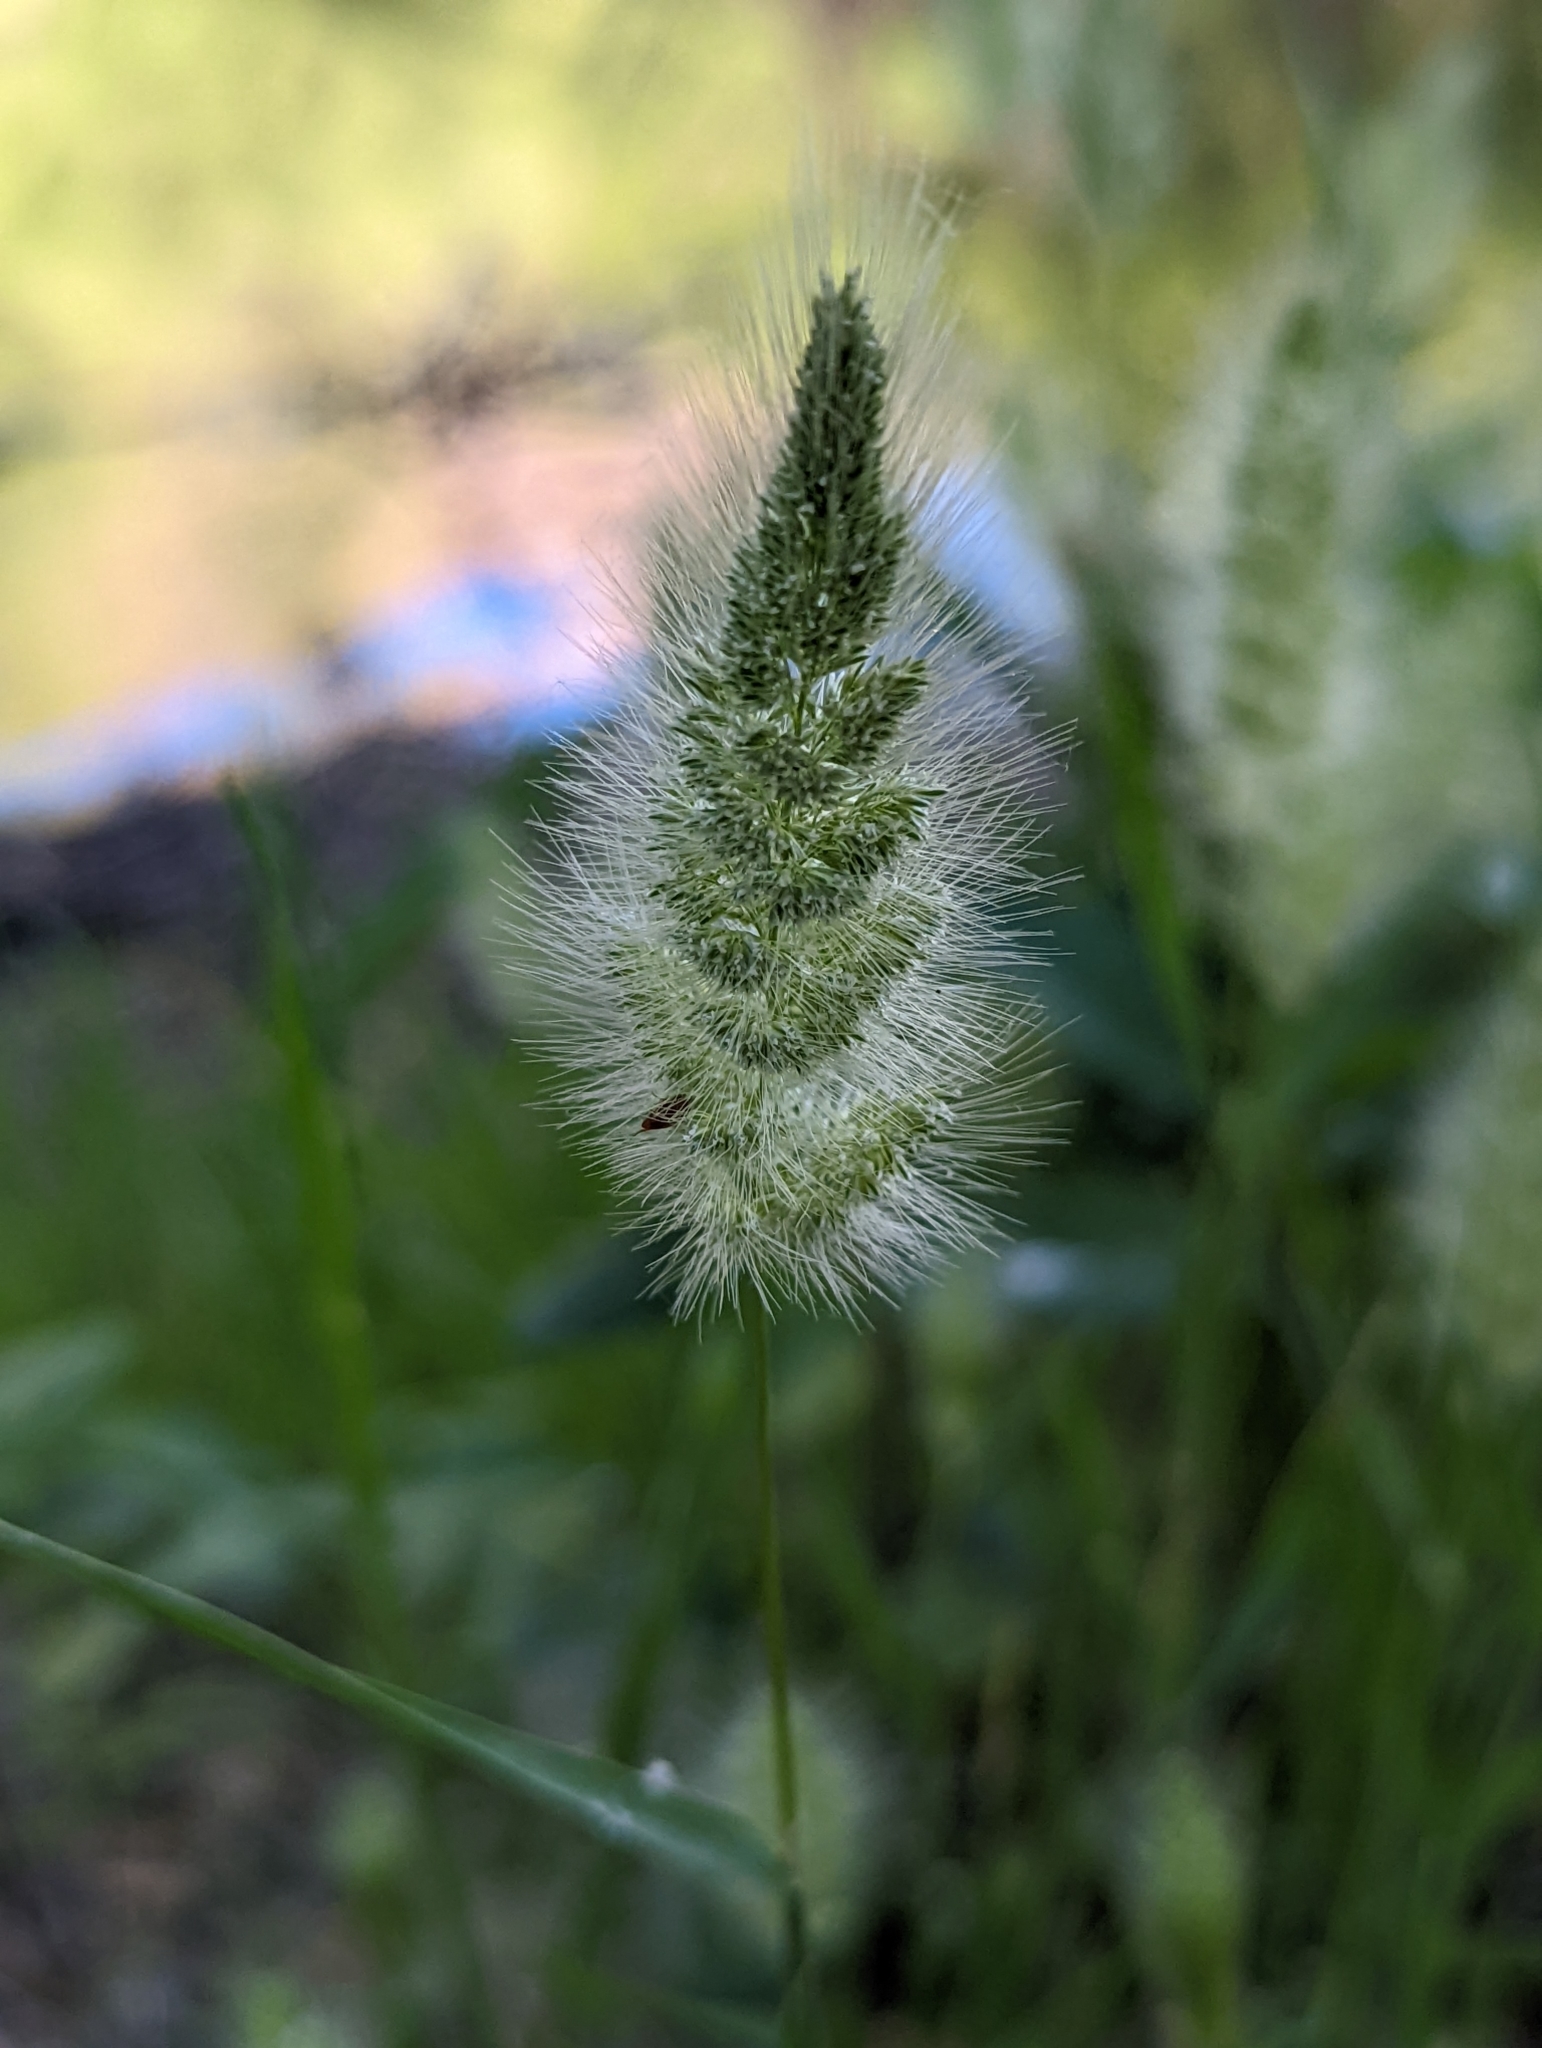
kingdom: Plantae
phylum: Tracheophyta
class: Liliopsida
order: Poales
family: Poaceae
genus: Polypogon
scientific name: Polypogon monspeliensis
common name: Annual rabbitsfoot grass
